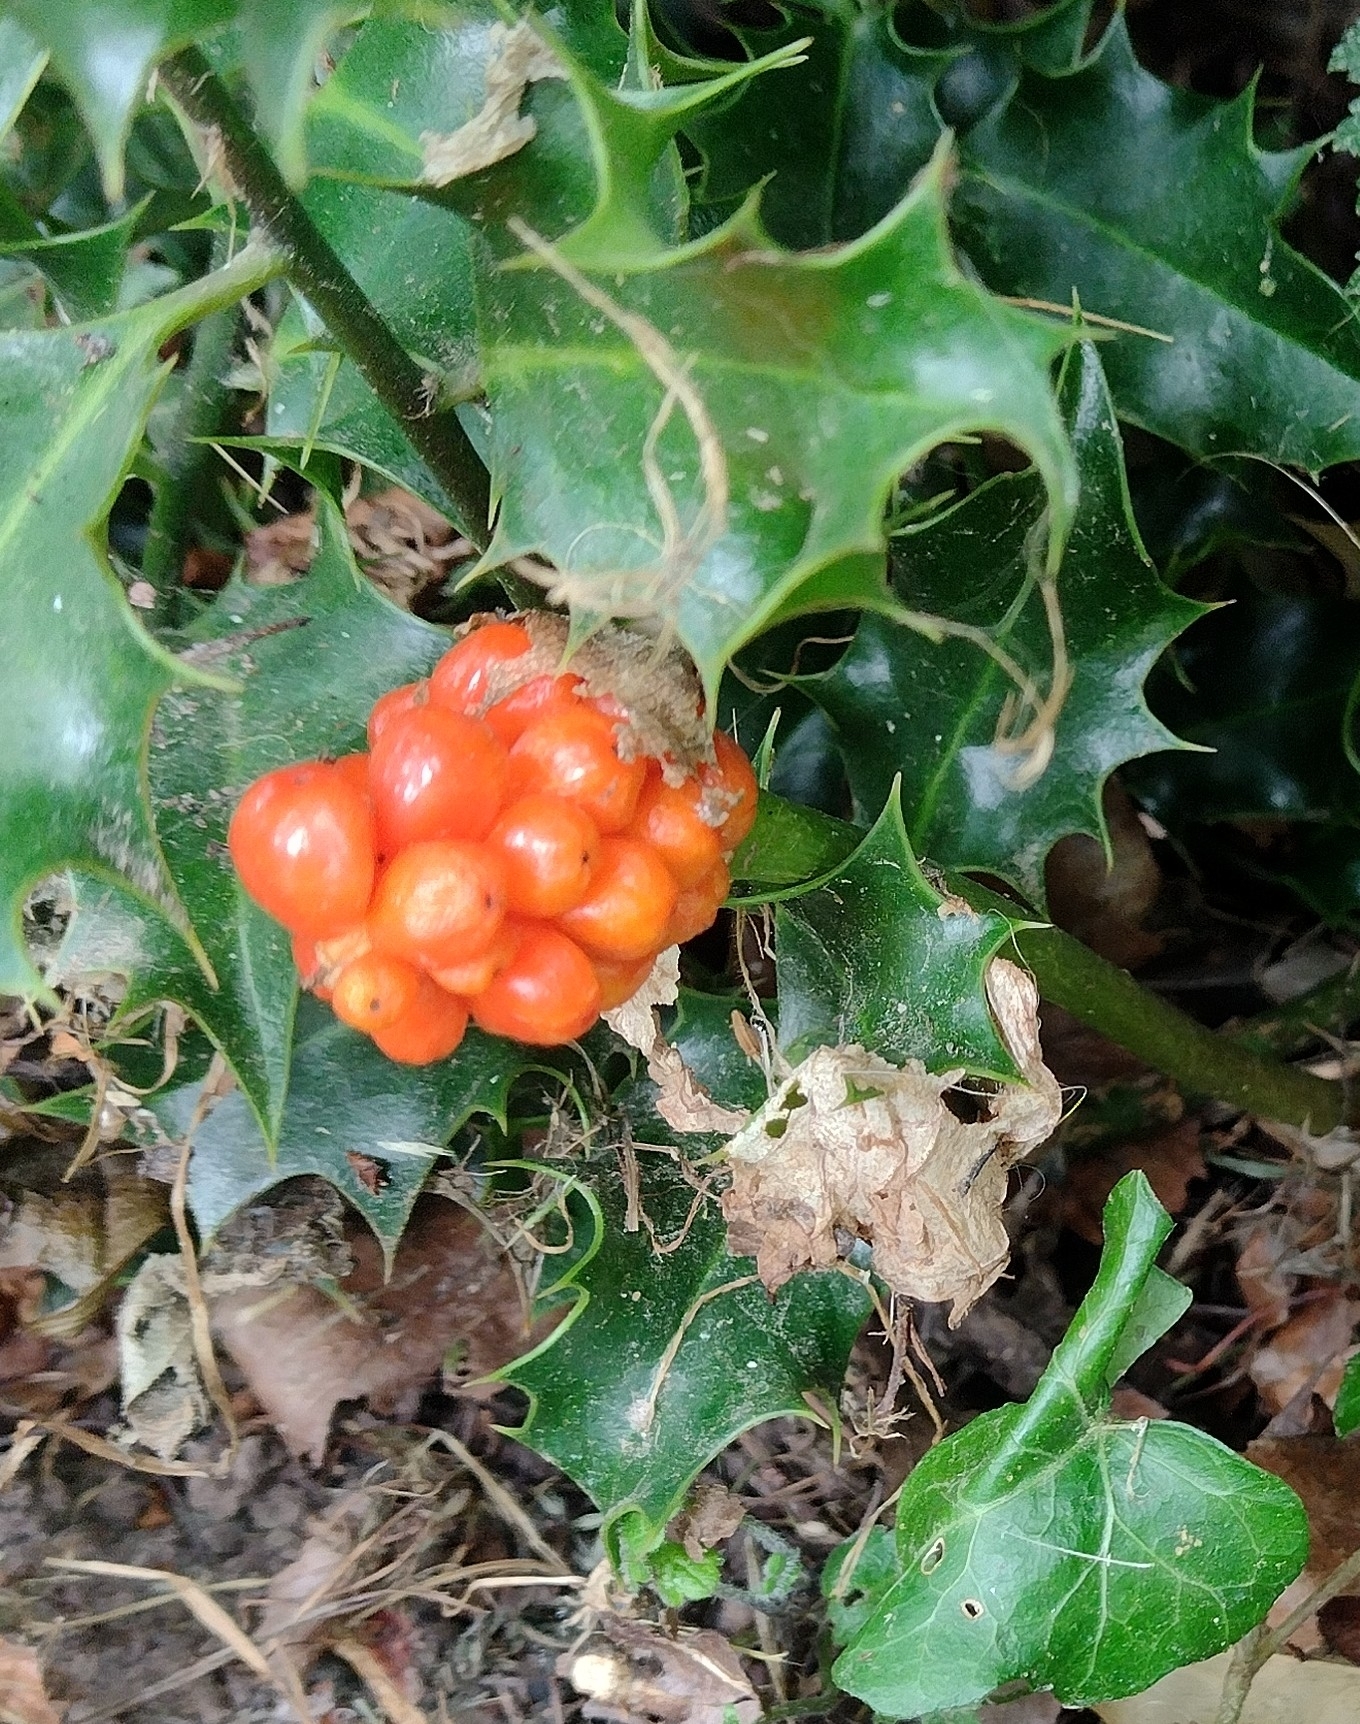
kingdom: Plantae
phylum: Tracheophyta
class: Liliopsida
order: Alismatales
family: Araceae
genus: Arum
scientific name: Arum maculatum
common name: Lords-and-ladies
